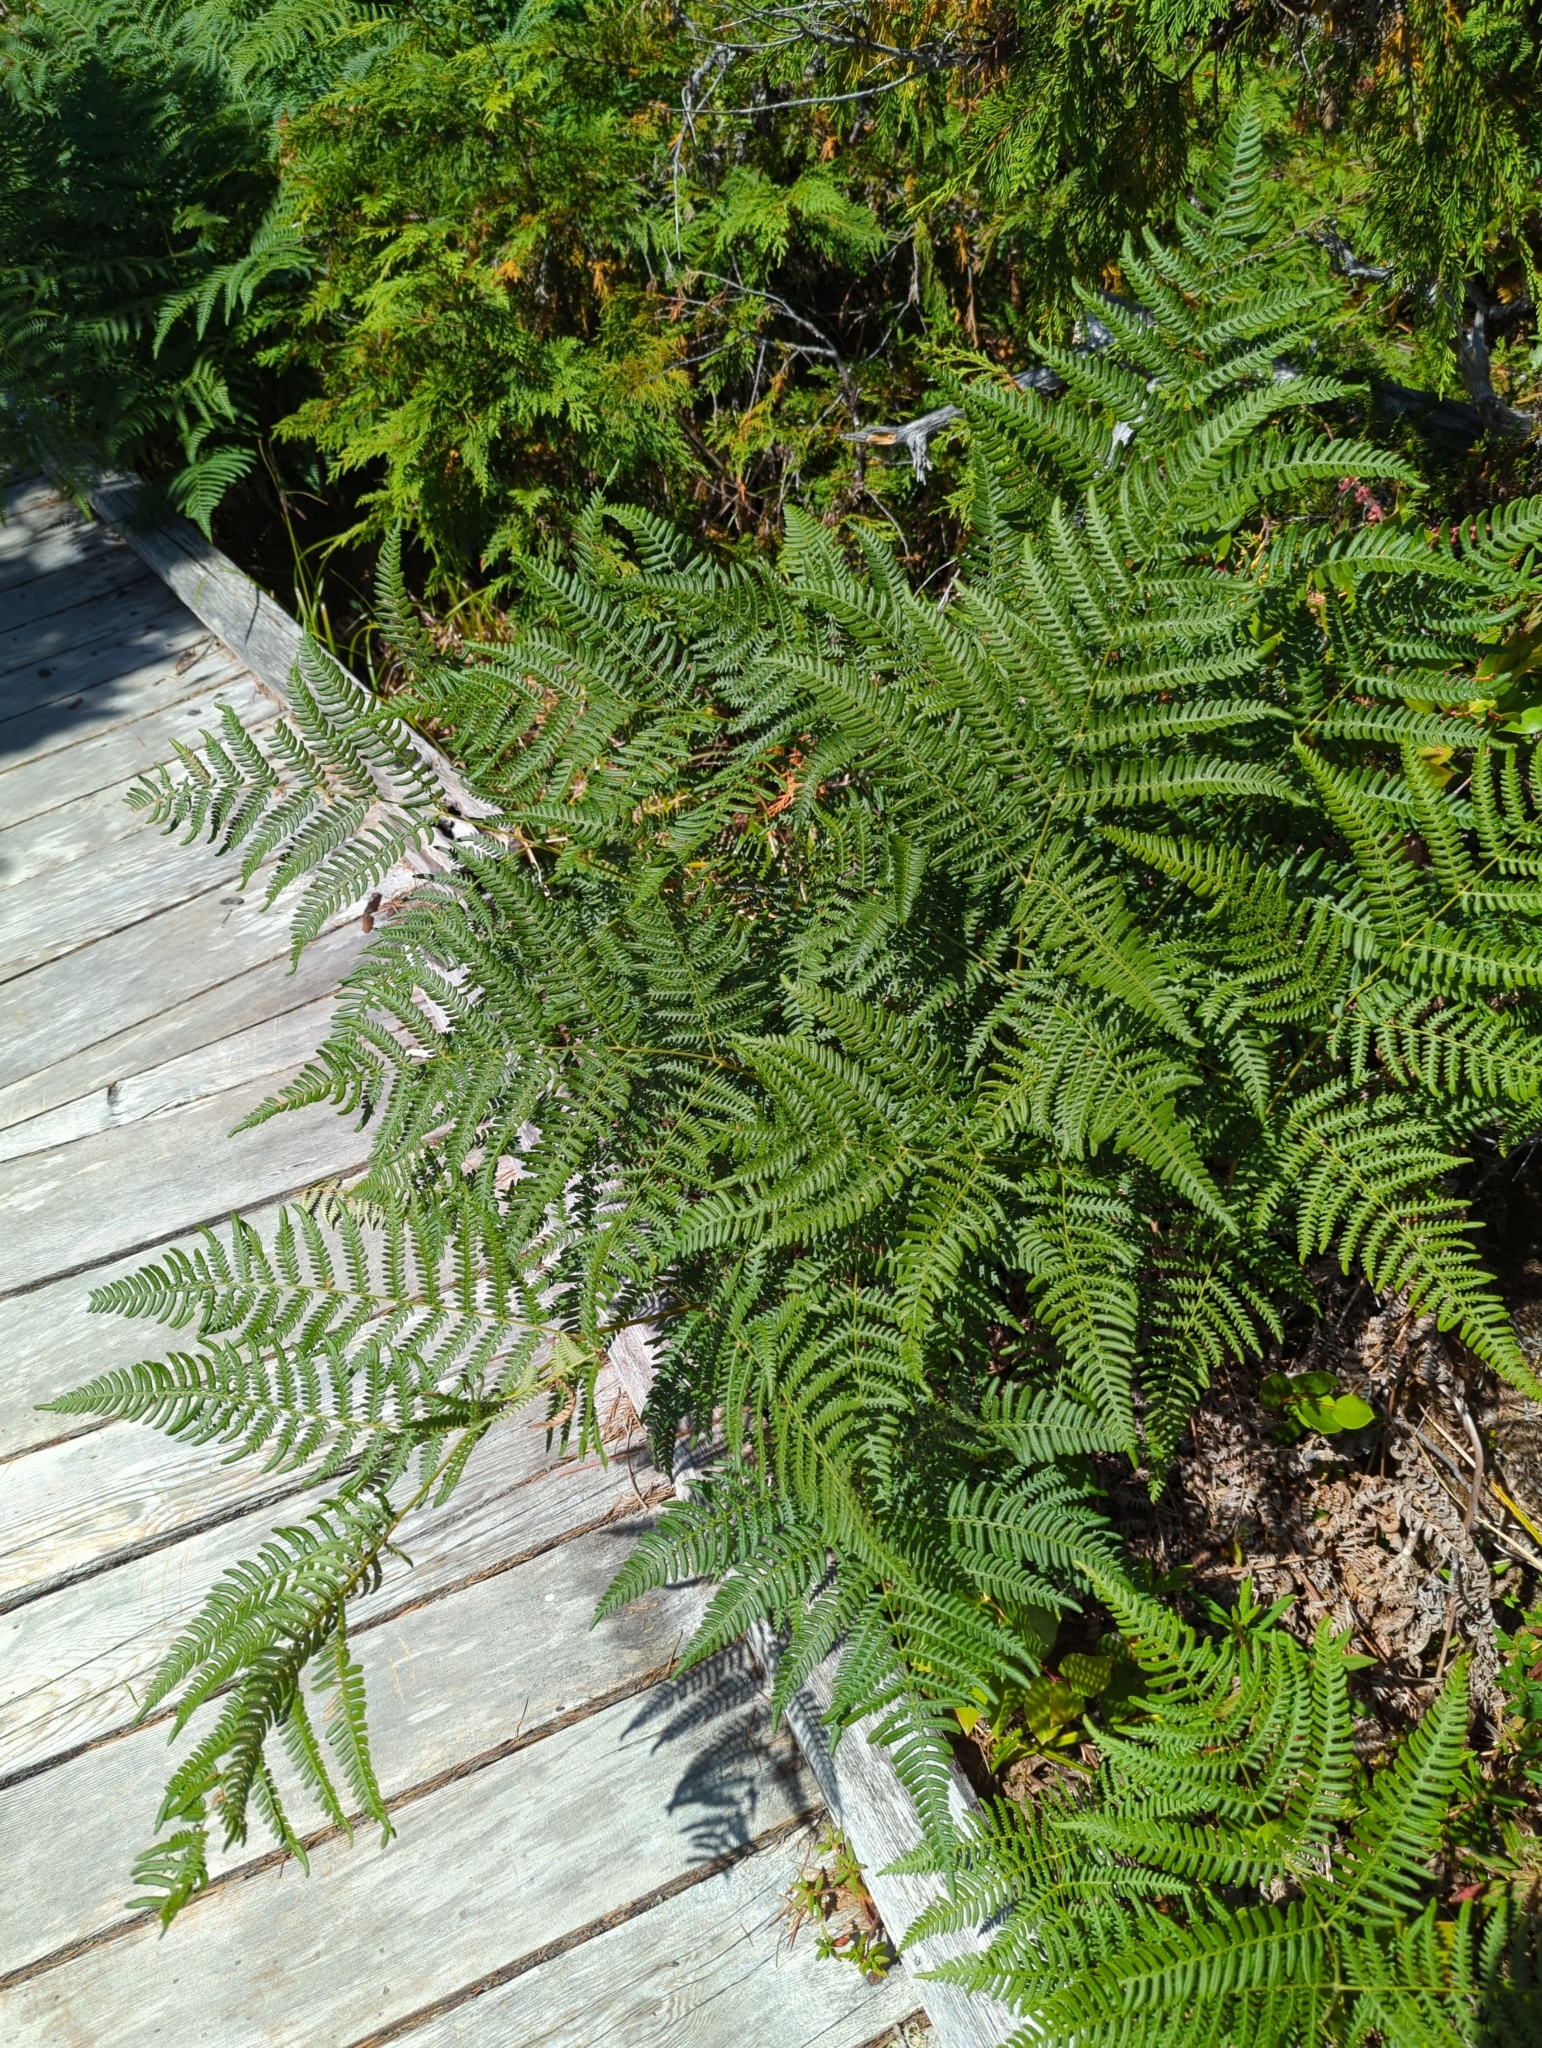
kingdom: Plantae
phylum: Tracheophyta
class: Polypodiopsida
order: Polypodiales
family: Dennstaedtiaceae
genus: Pteridium
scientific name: Pteridium aquilinum
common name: Bracken
